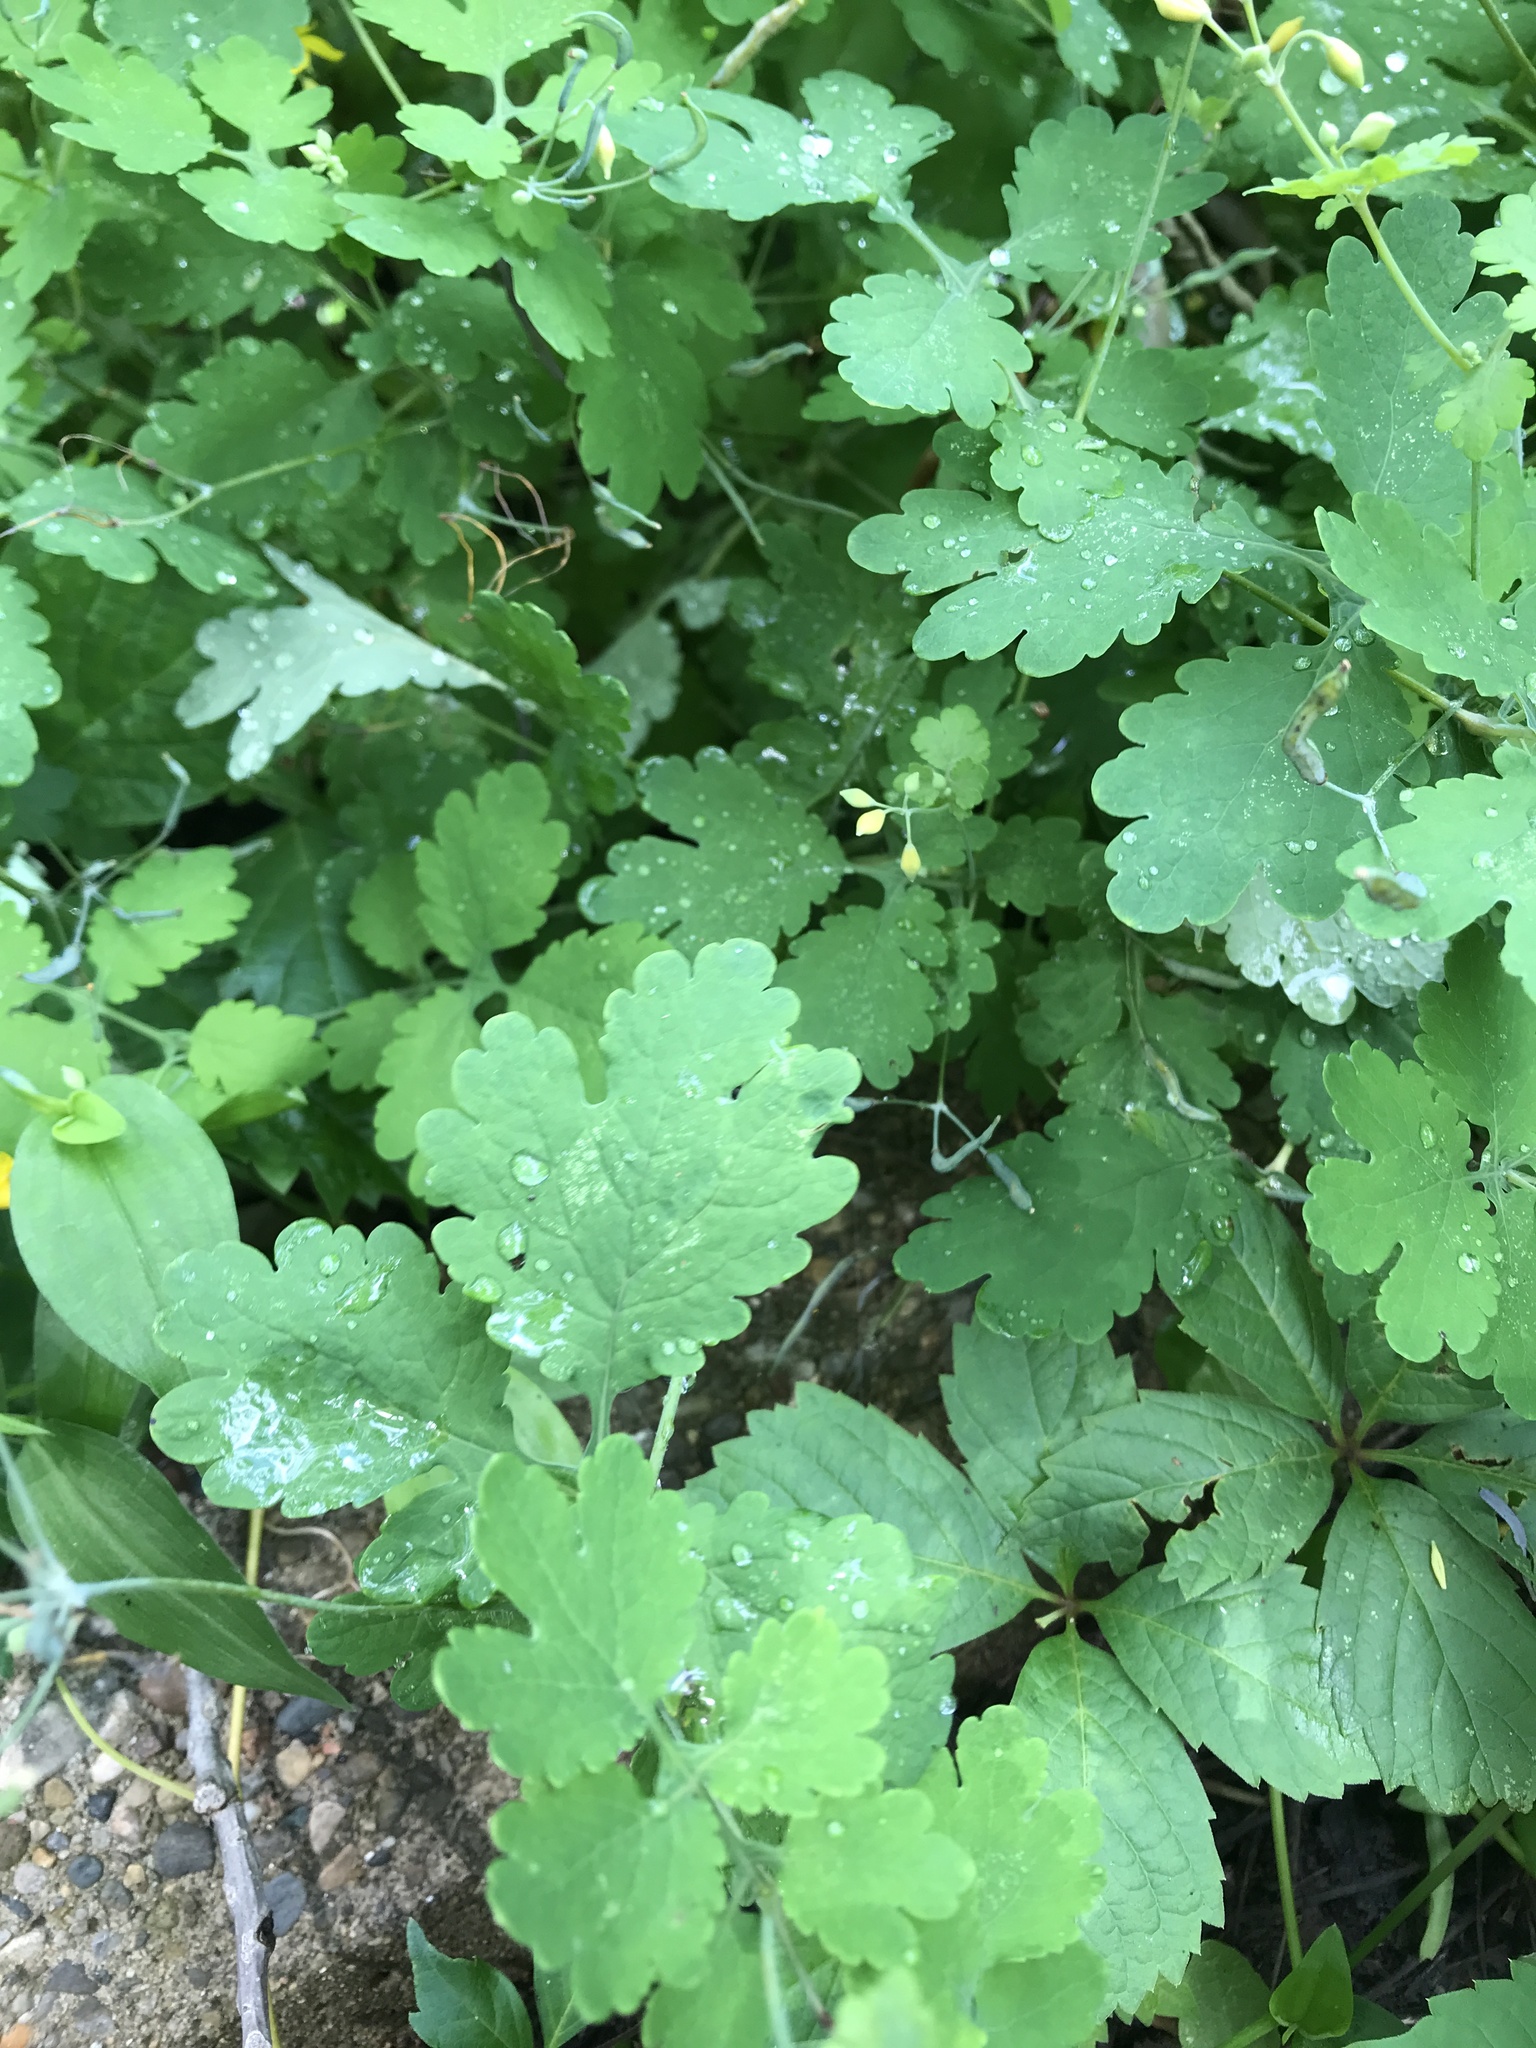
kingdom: Plantae
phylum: Tracheophyta
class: Magnoliopsida
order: Ranunculales
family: Papaveraceae
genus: Chelidonium
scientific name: Chelidonium majus
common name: Greater celandine
